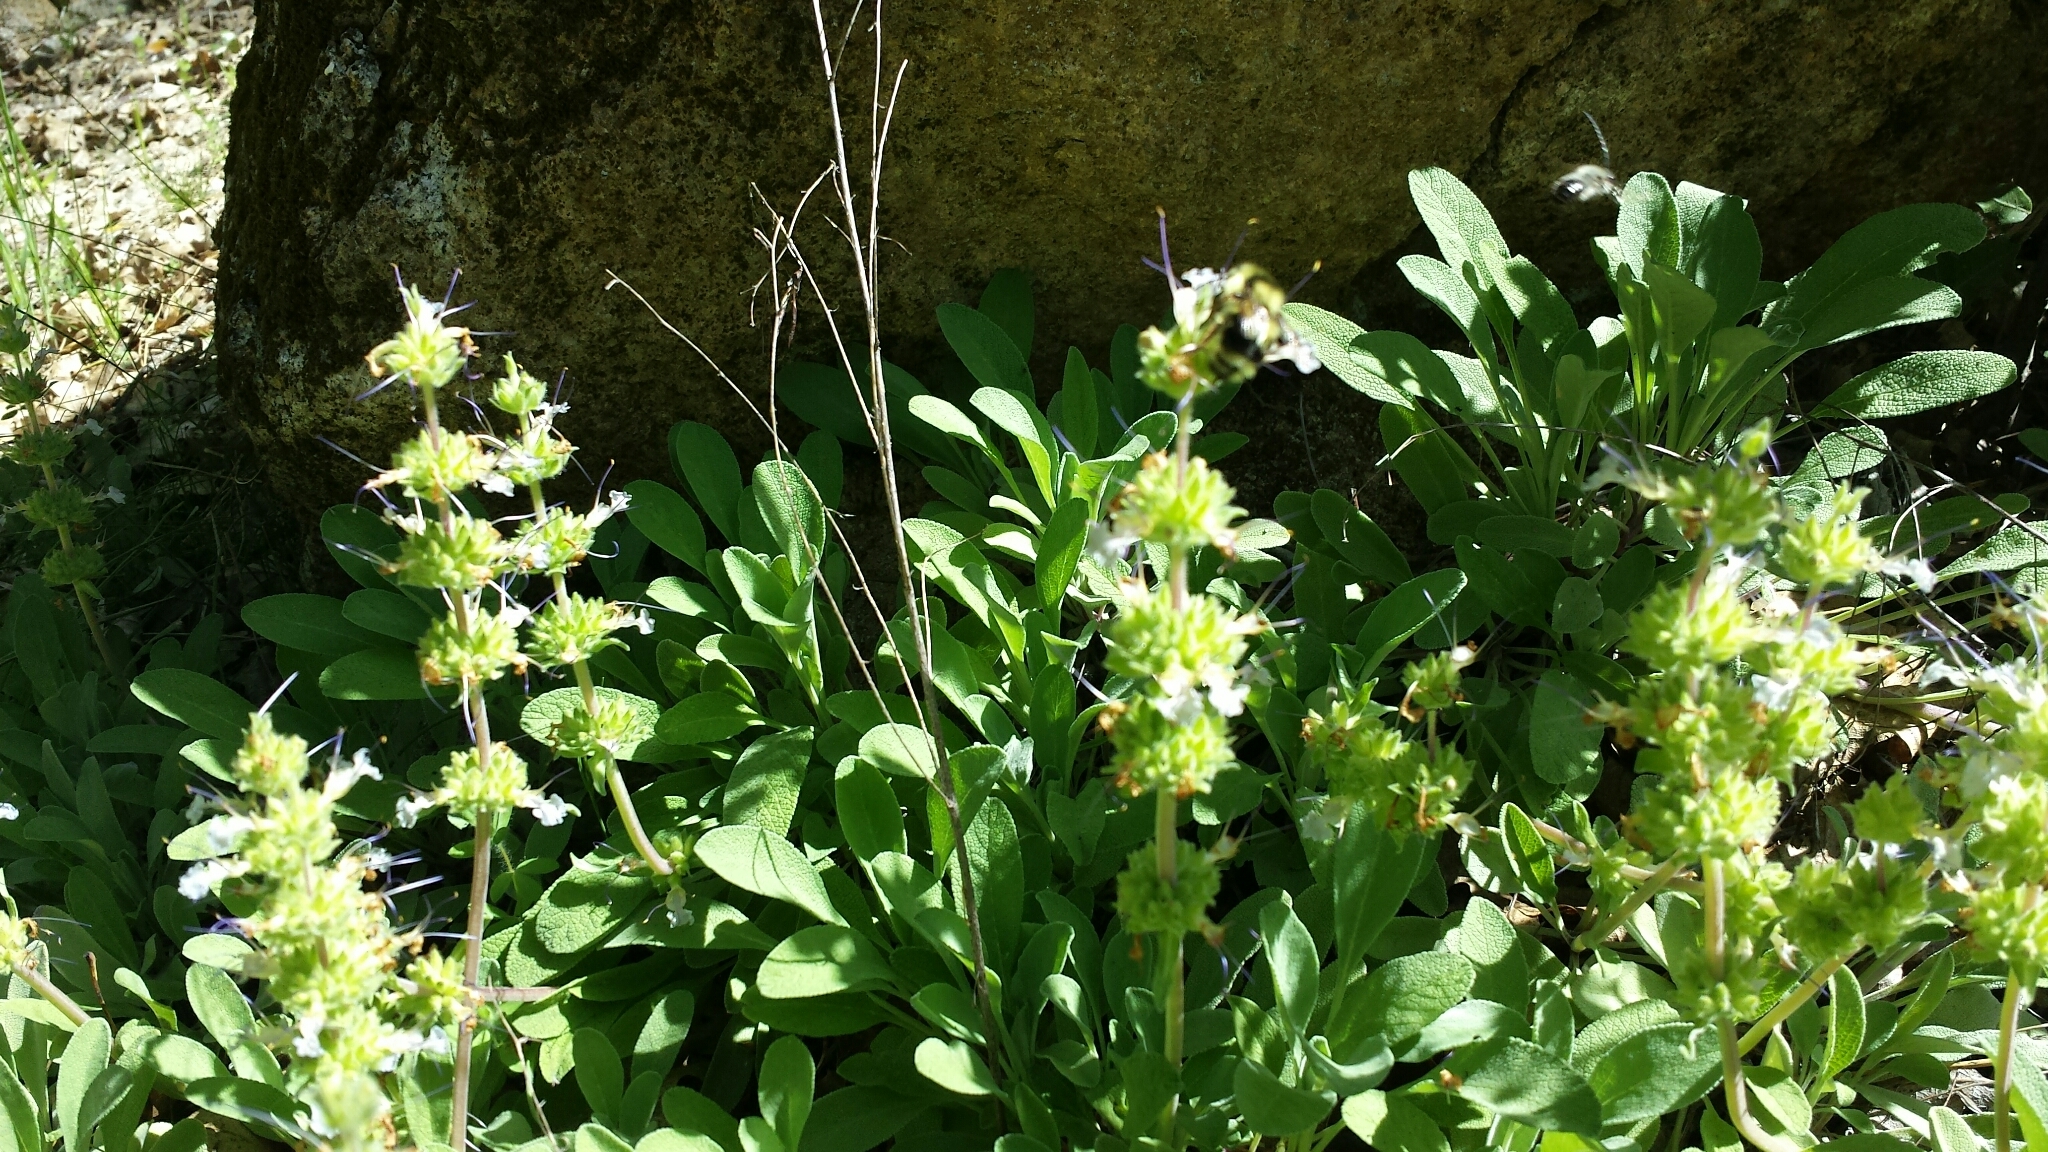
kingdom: Plantae
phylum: Tracheophyta
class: Magnoliopsida
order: Lamiales
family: Lamiaceae
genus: Salvia
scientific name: Salvia sonomensis
